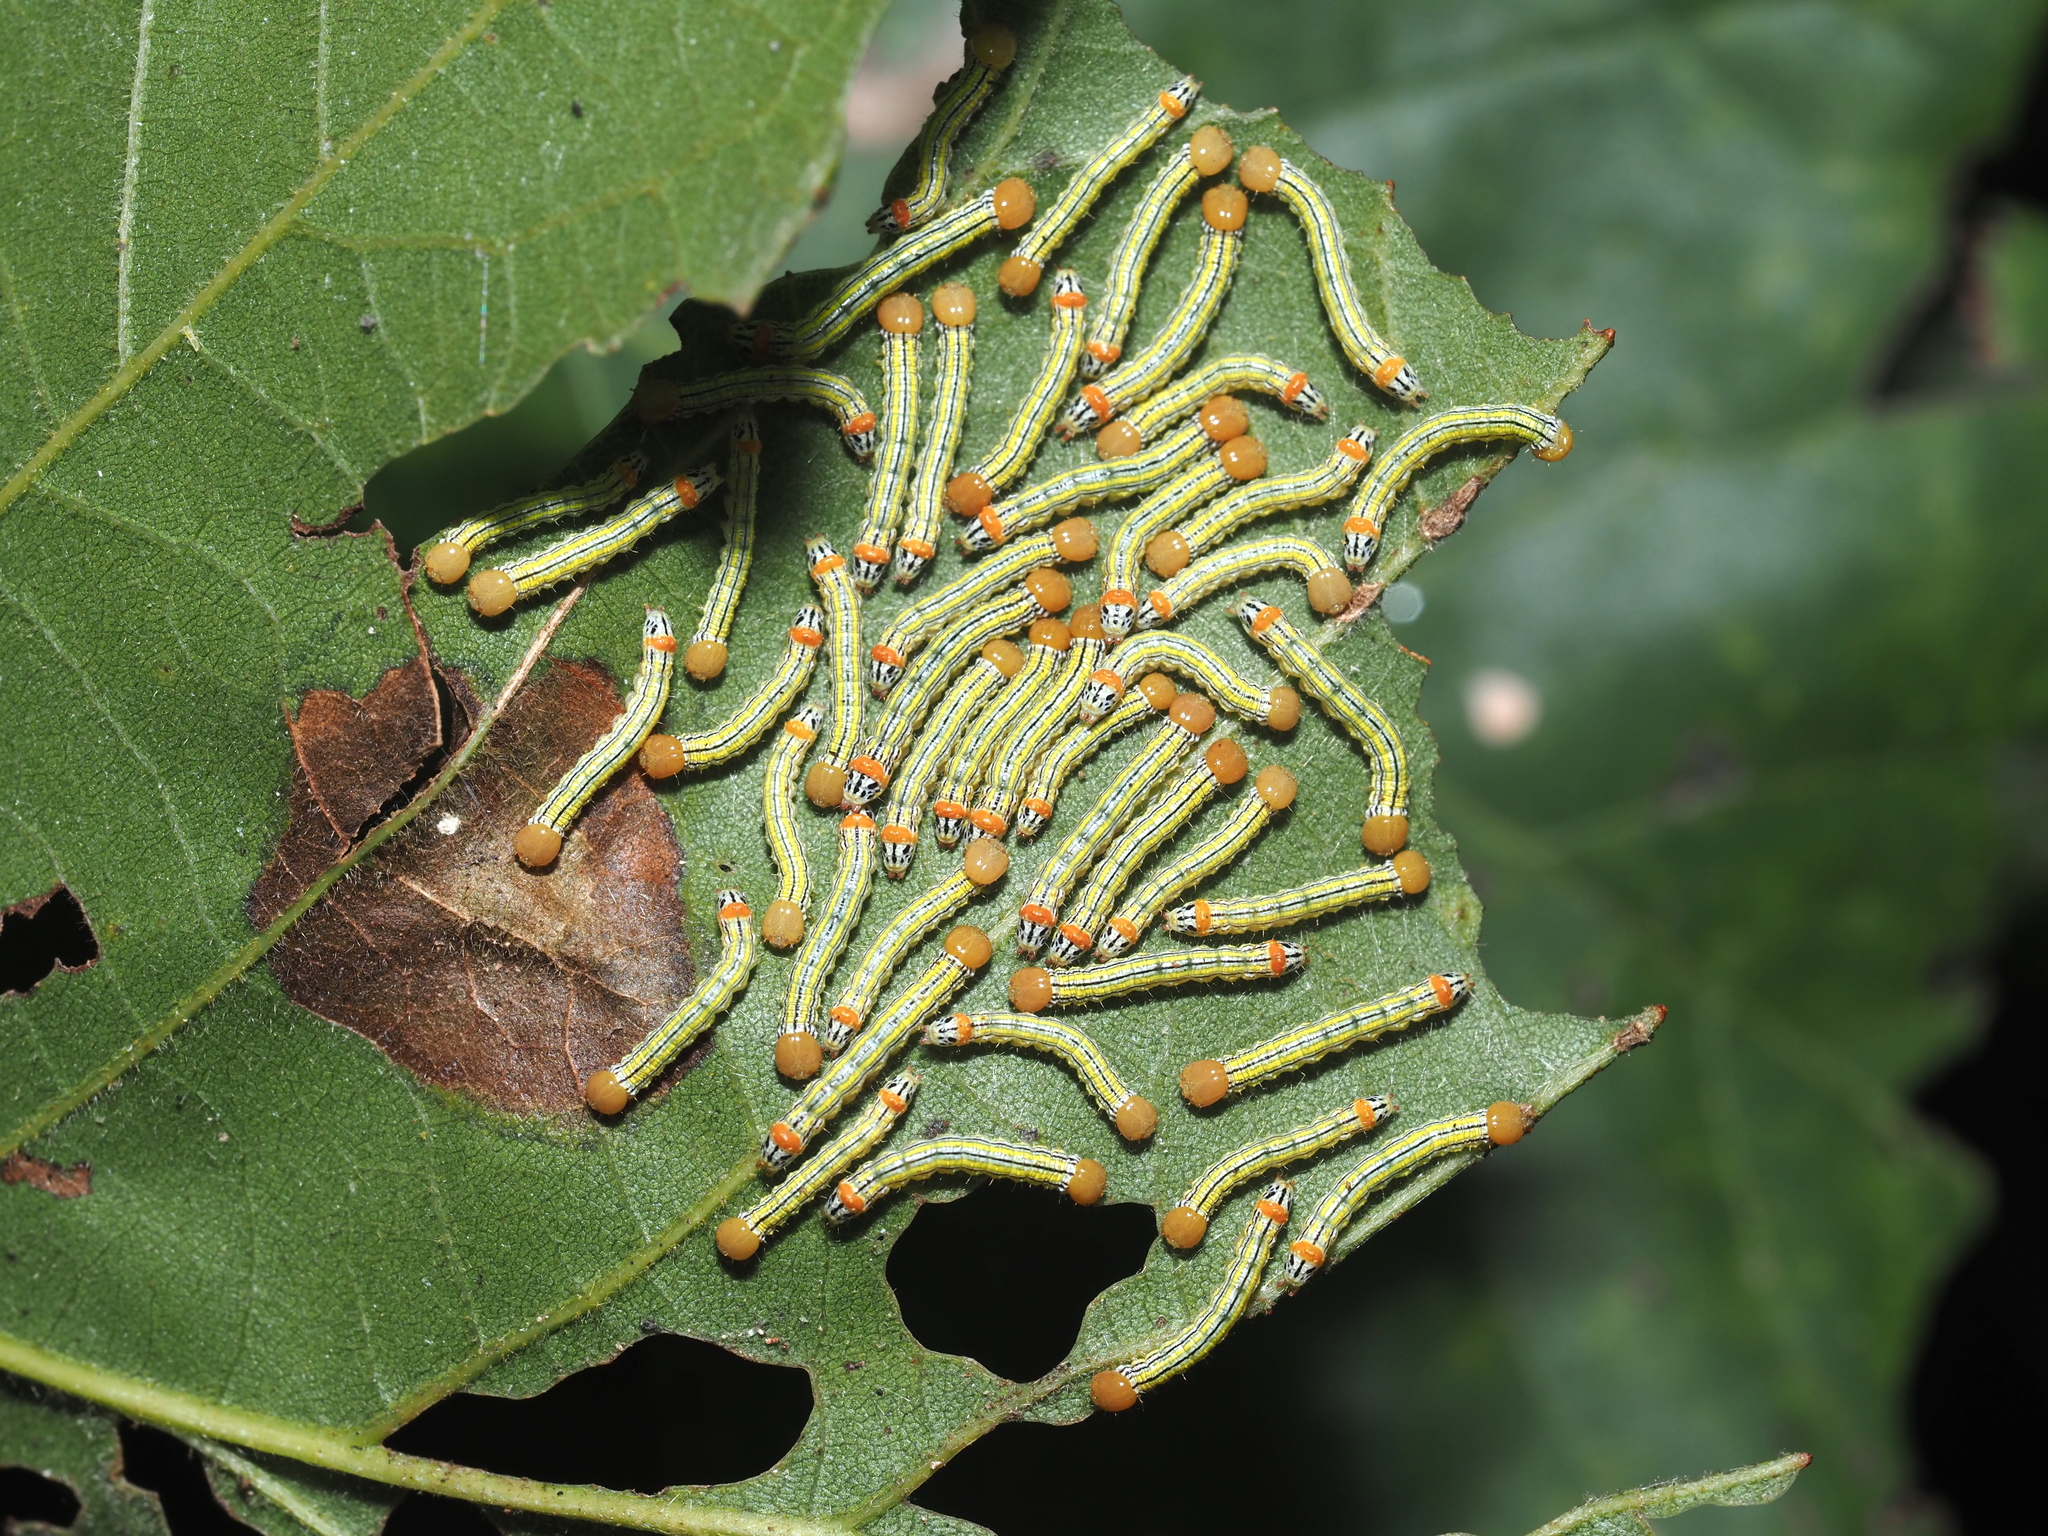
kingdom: Animalia
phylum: Arthropoda
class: Insecta
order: Lepidoptera
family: Notodontidae
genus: Symmerista
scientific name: Symmerista albifrons
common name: White-headed prominent
